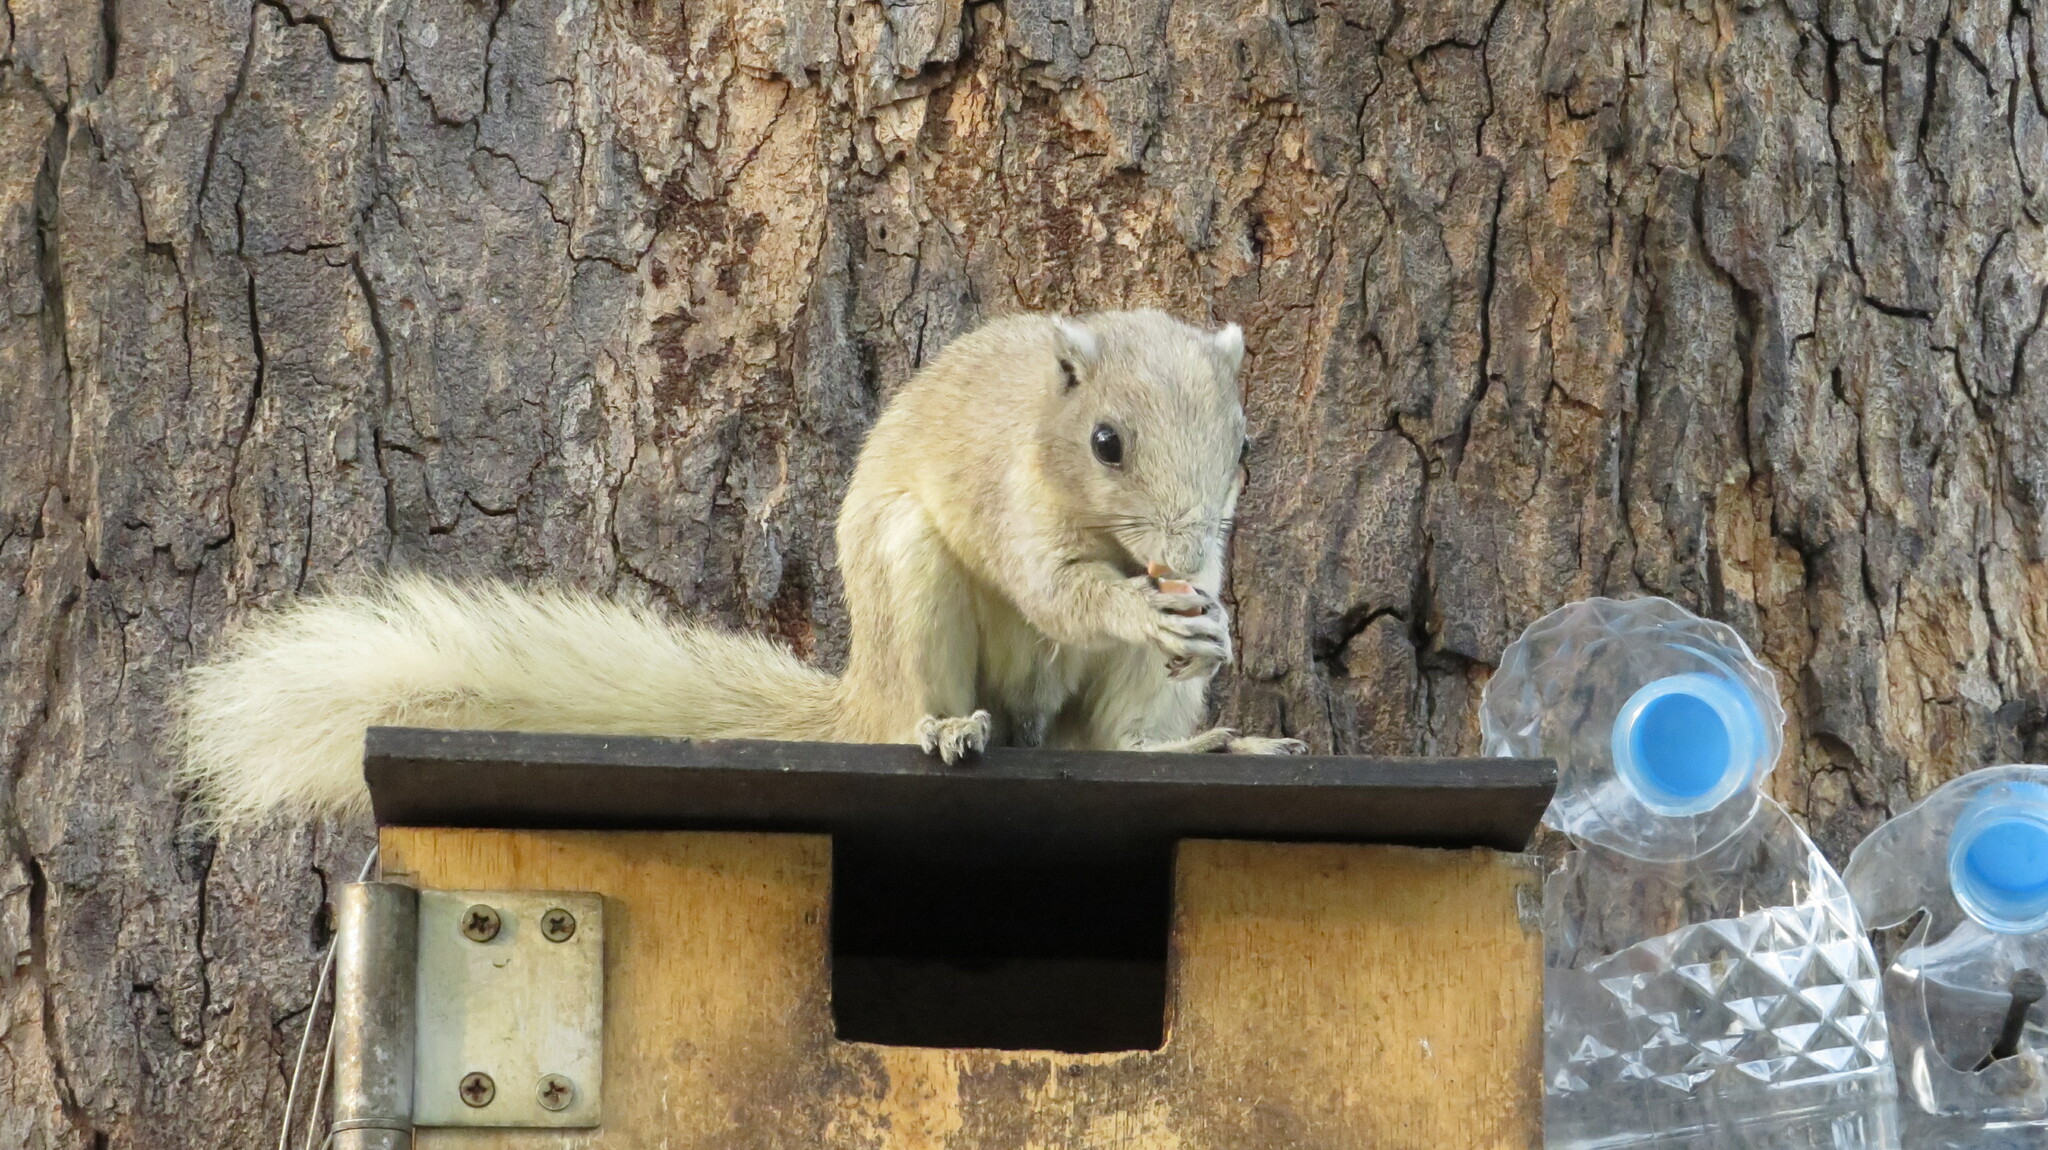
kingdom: Animalia
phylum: Chordata
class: Mammalia
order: Rodentia
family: Sciuridae
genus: Callosciurus
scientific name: Callosciurus finlaysonii
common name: Finlayson's squirrel
